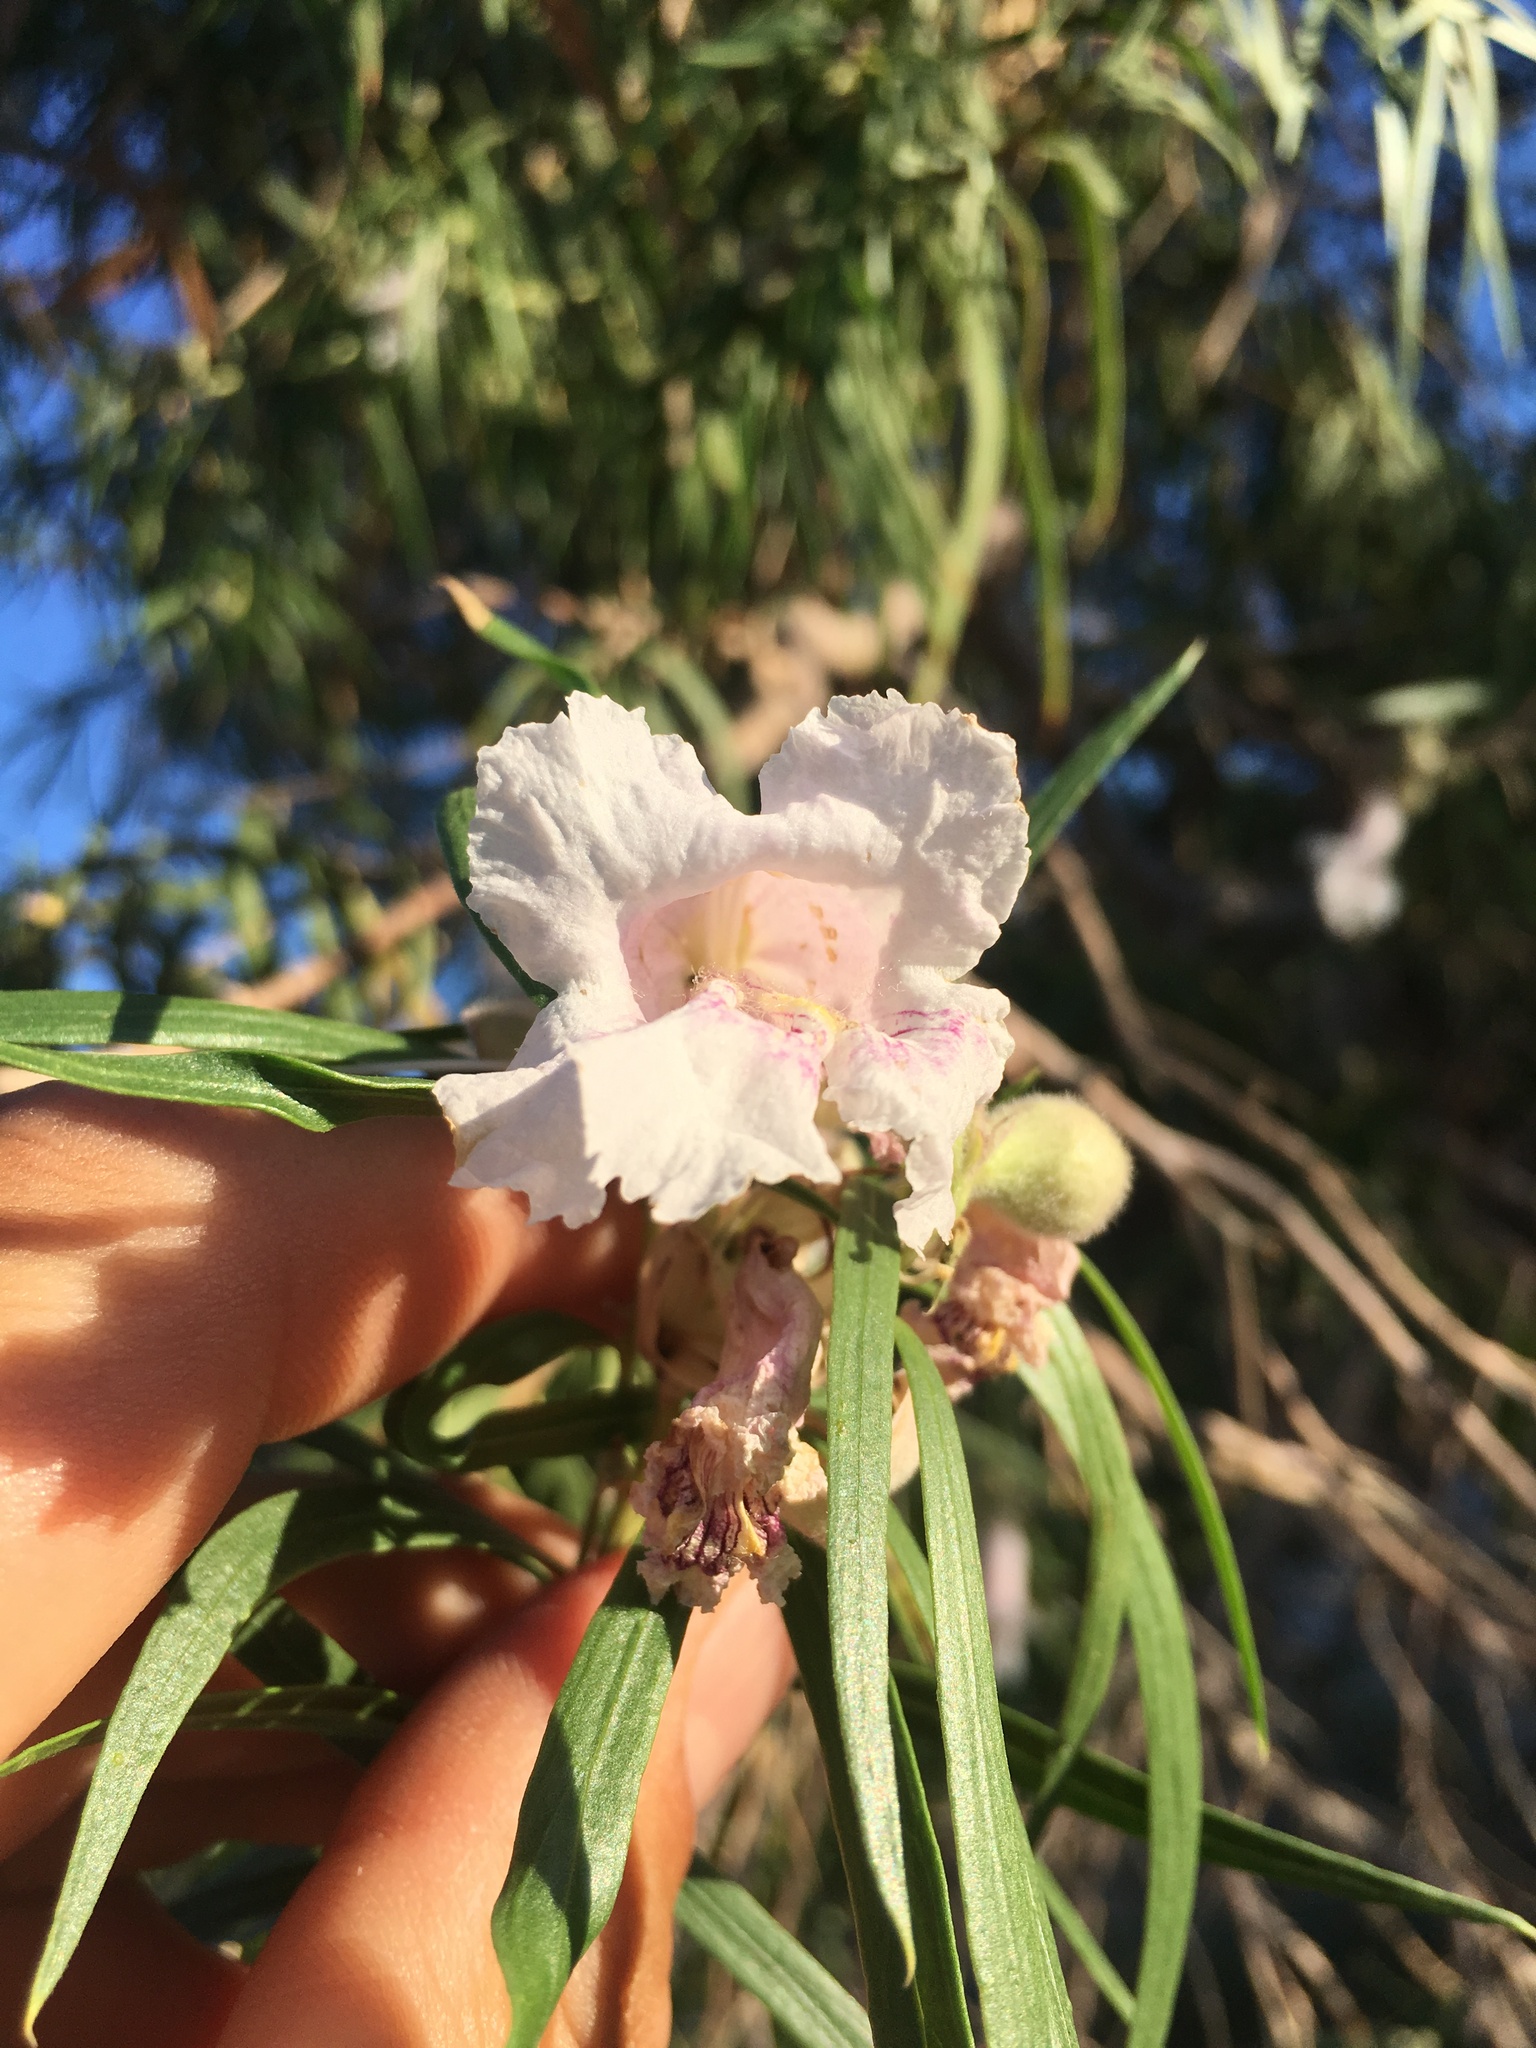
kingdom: Plantae
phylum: Tracheophyta
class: Magnoliopsida
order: Lamiales
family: Bignoniaceae
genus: Chilopsis
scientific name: Chilopsis linearis
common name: Desert-willow
